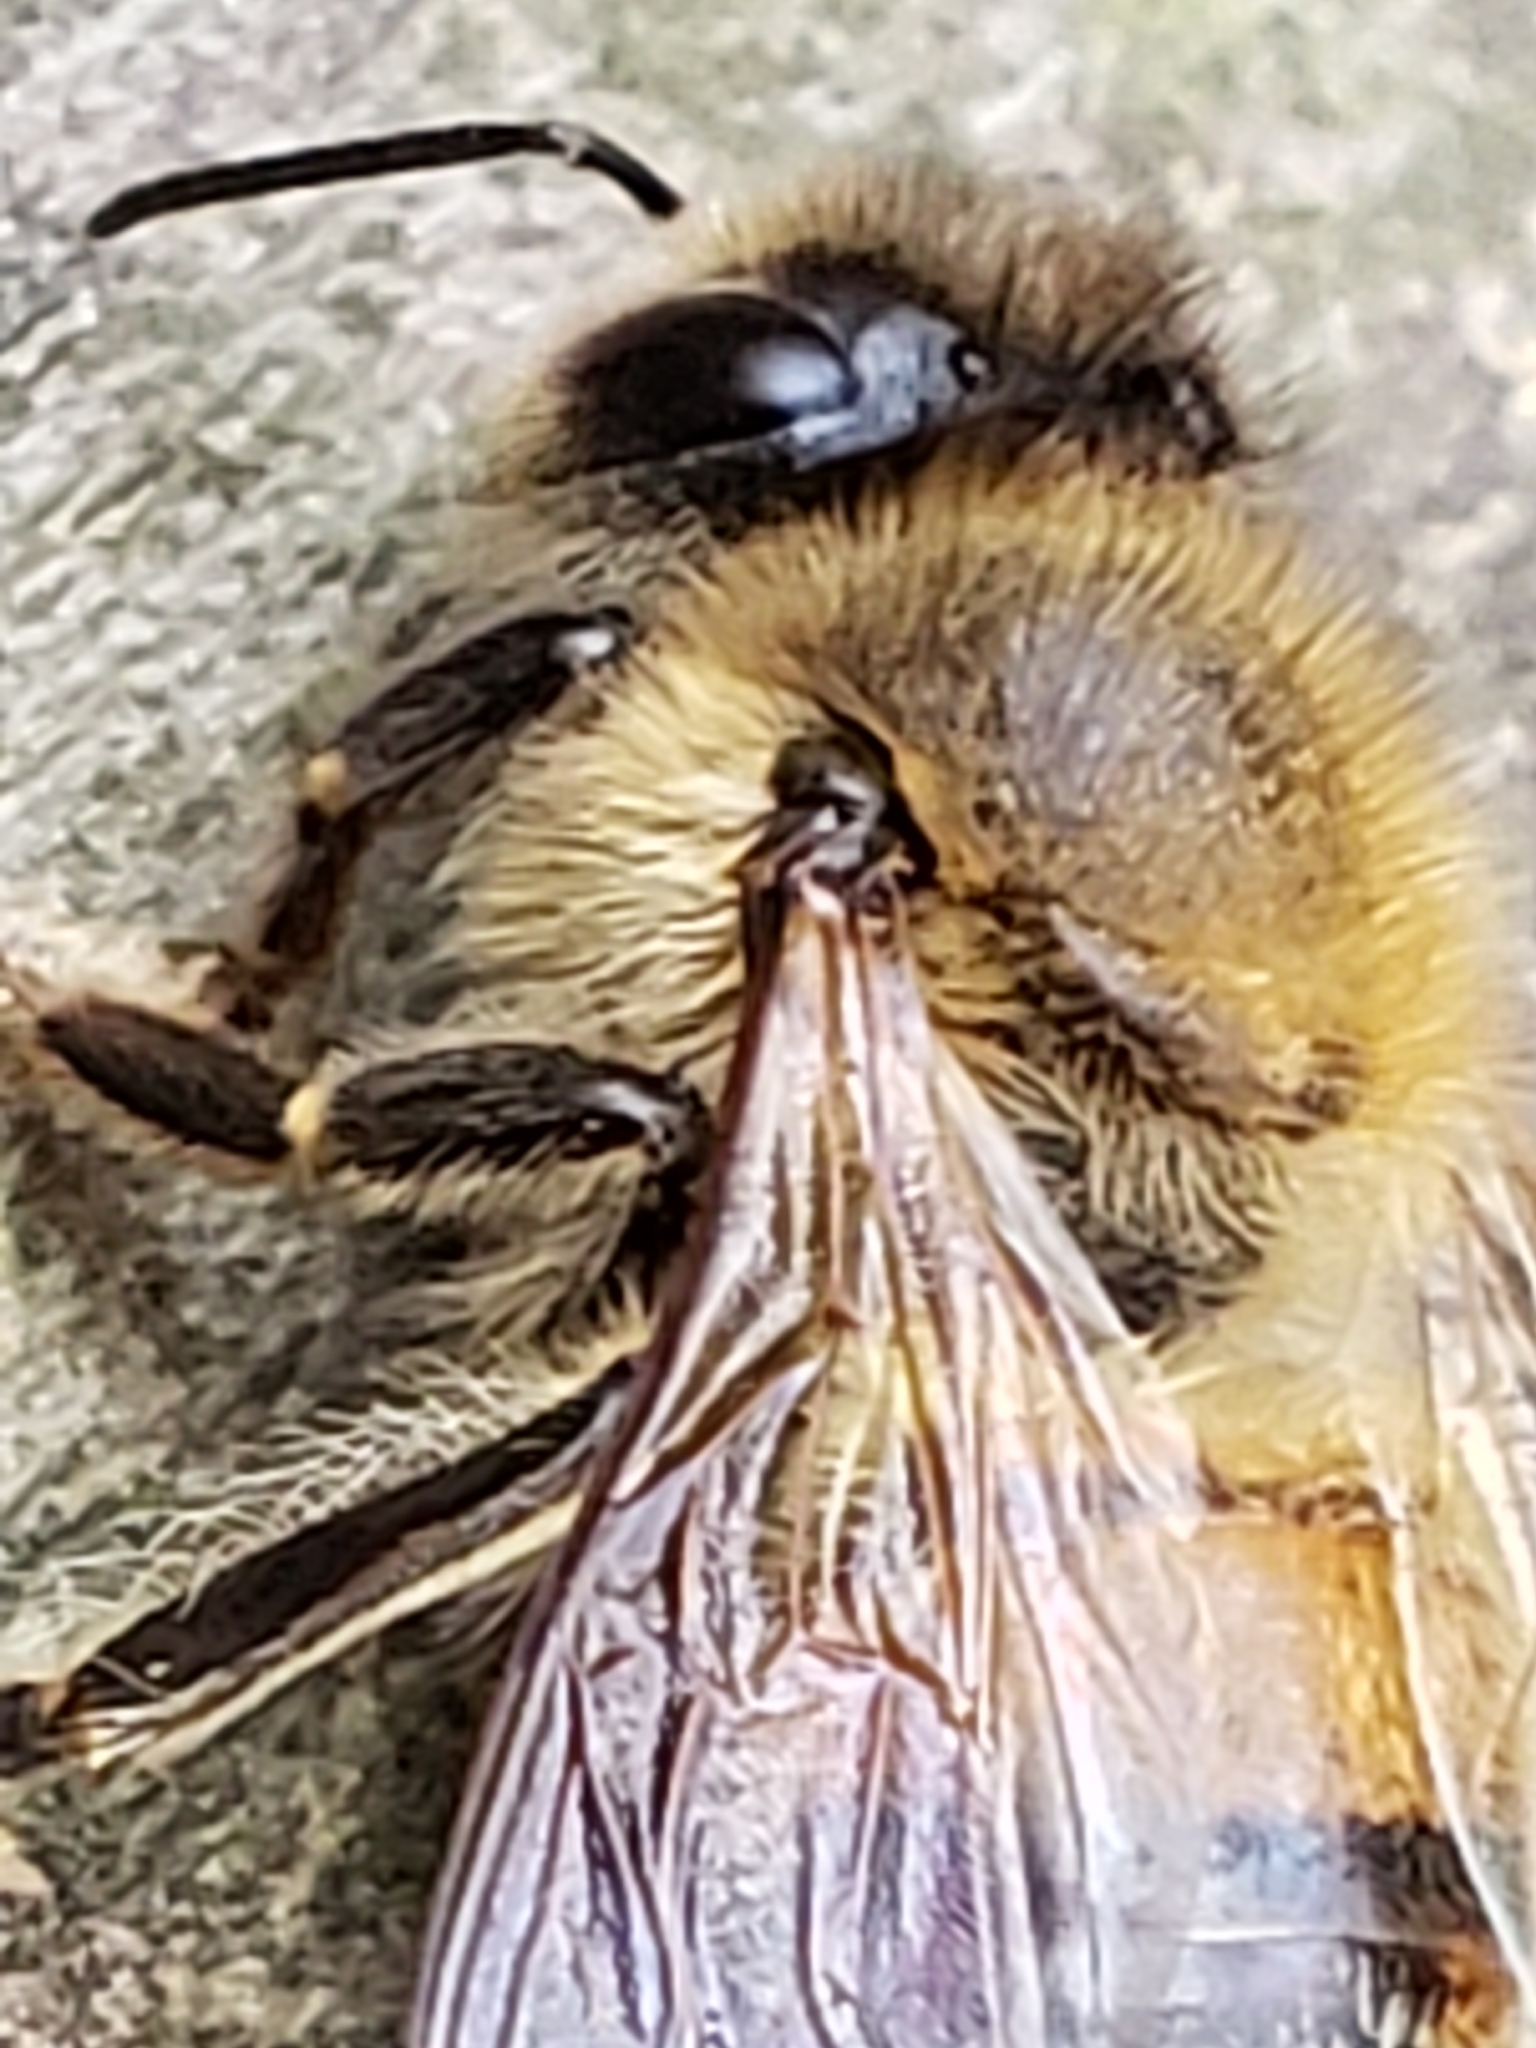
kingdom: Animalia
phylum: Arthropoda
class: Insecta
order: Hymenoptera
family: Apidae
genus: Apis
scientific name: Apis mellifera
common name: Honey bee
